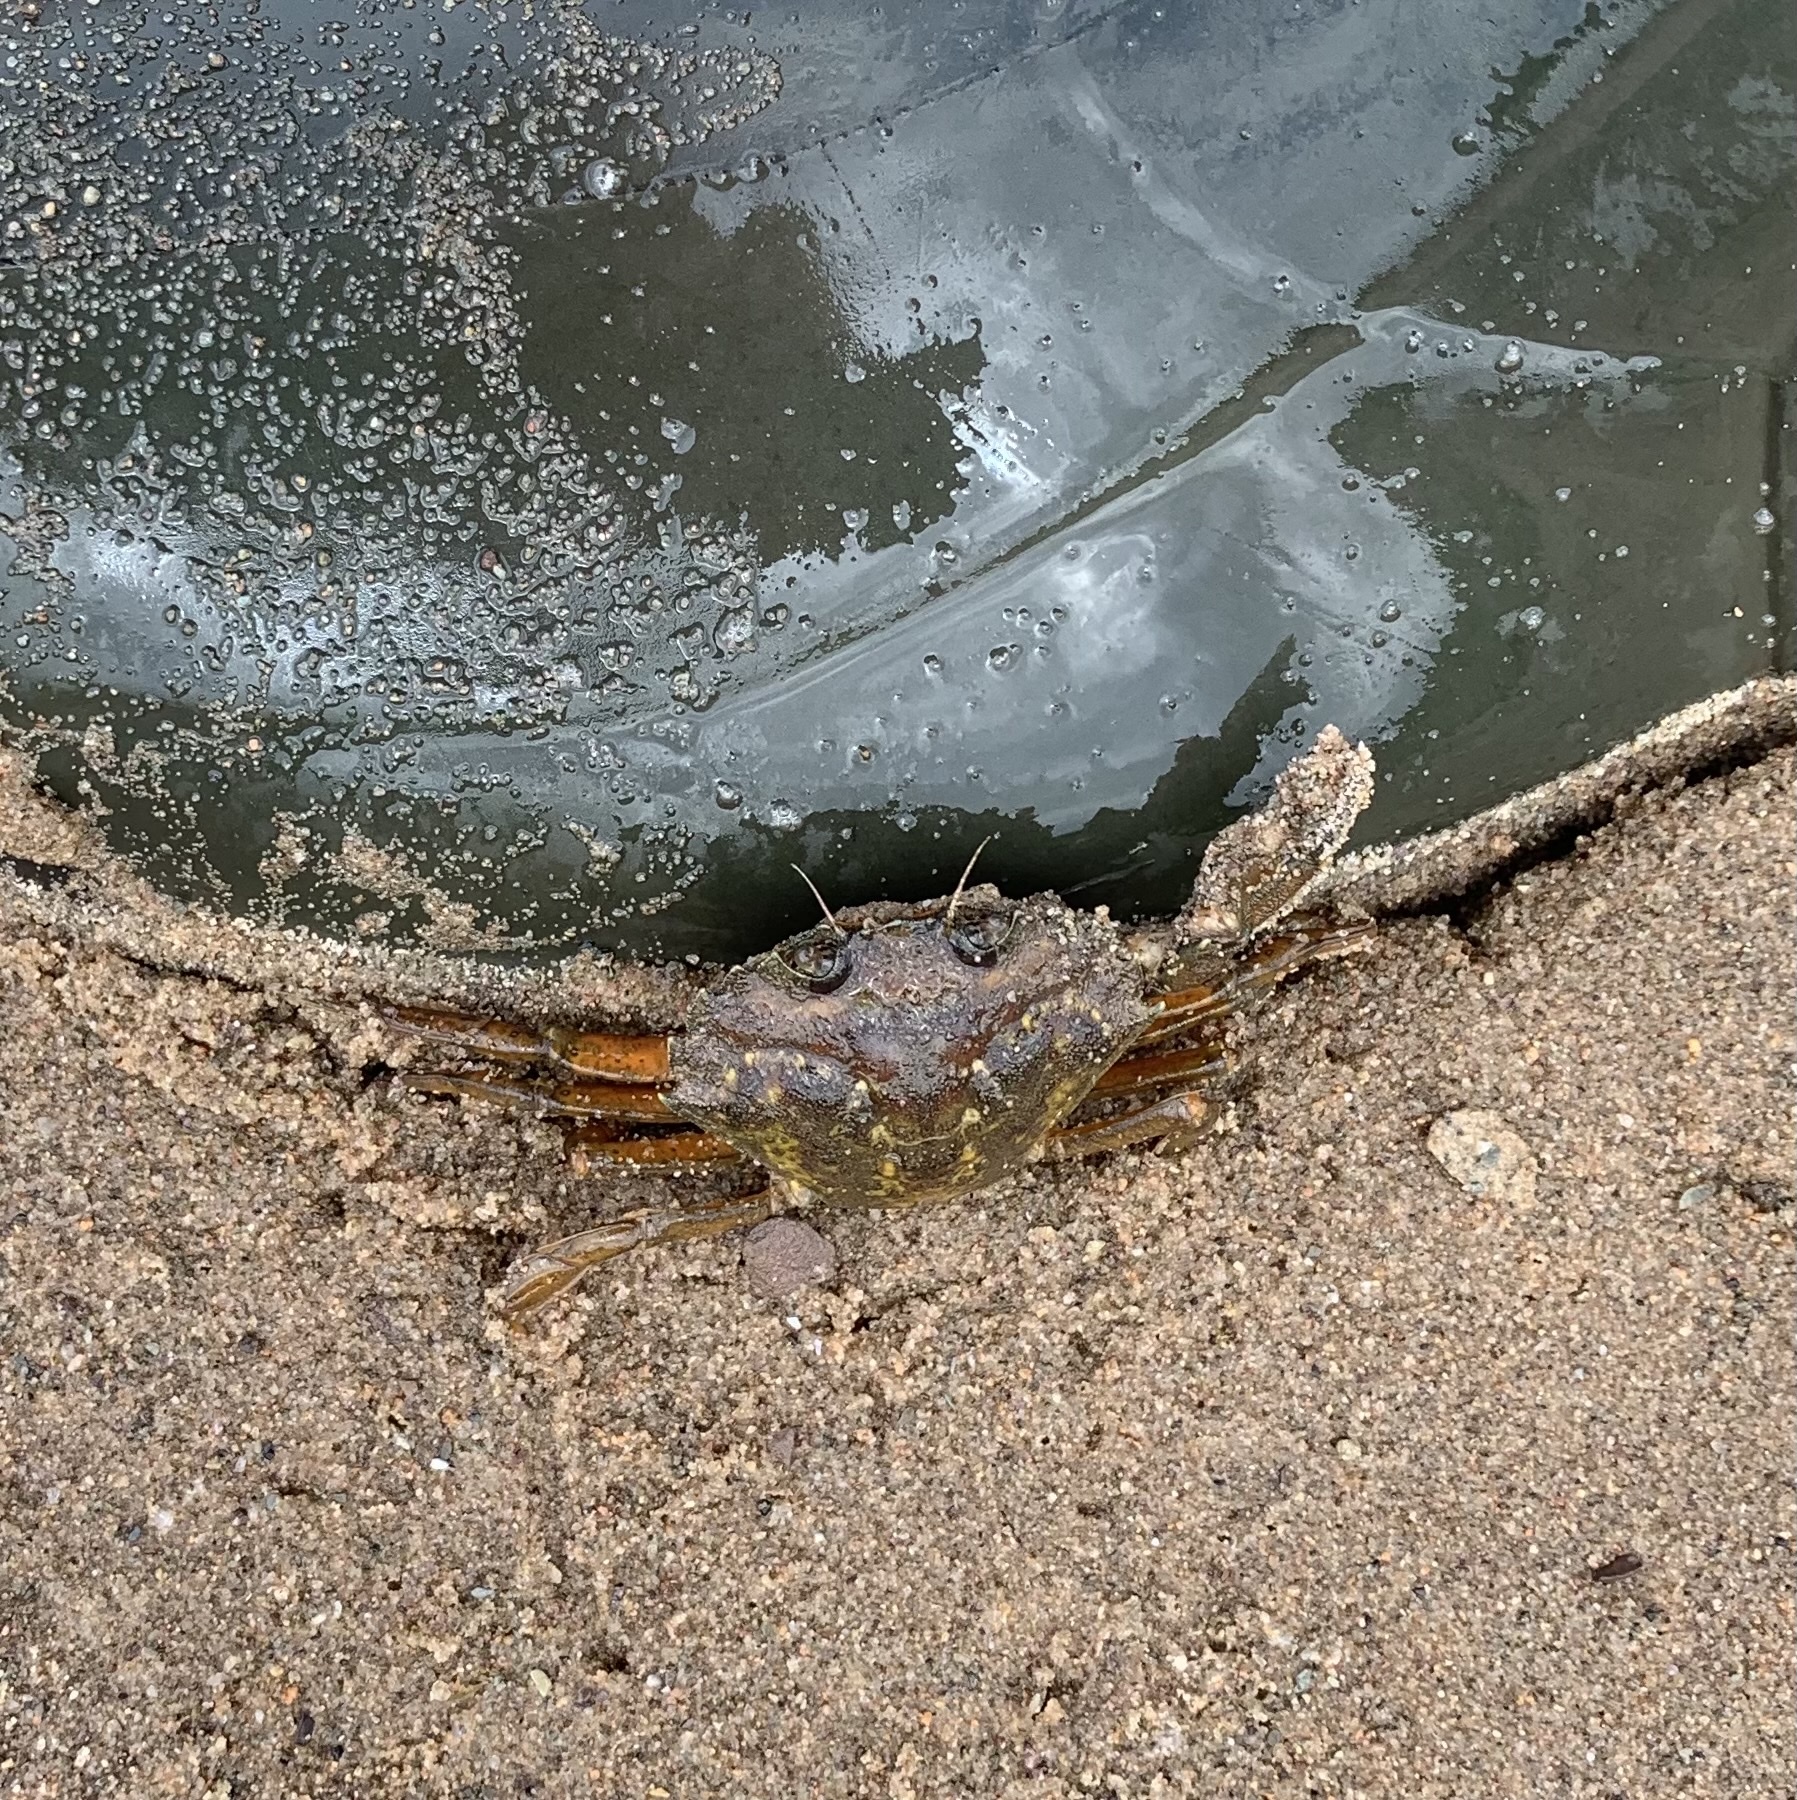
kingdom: Animalia
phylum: Arthropoda
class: Malacostraca
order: Decapoda
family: Carcinidae
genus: Carcinus
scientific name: Carcinus maenas
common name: European green crab
